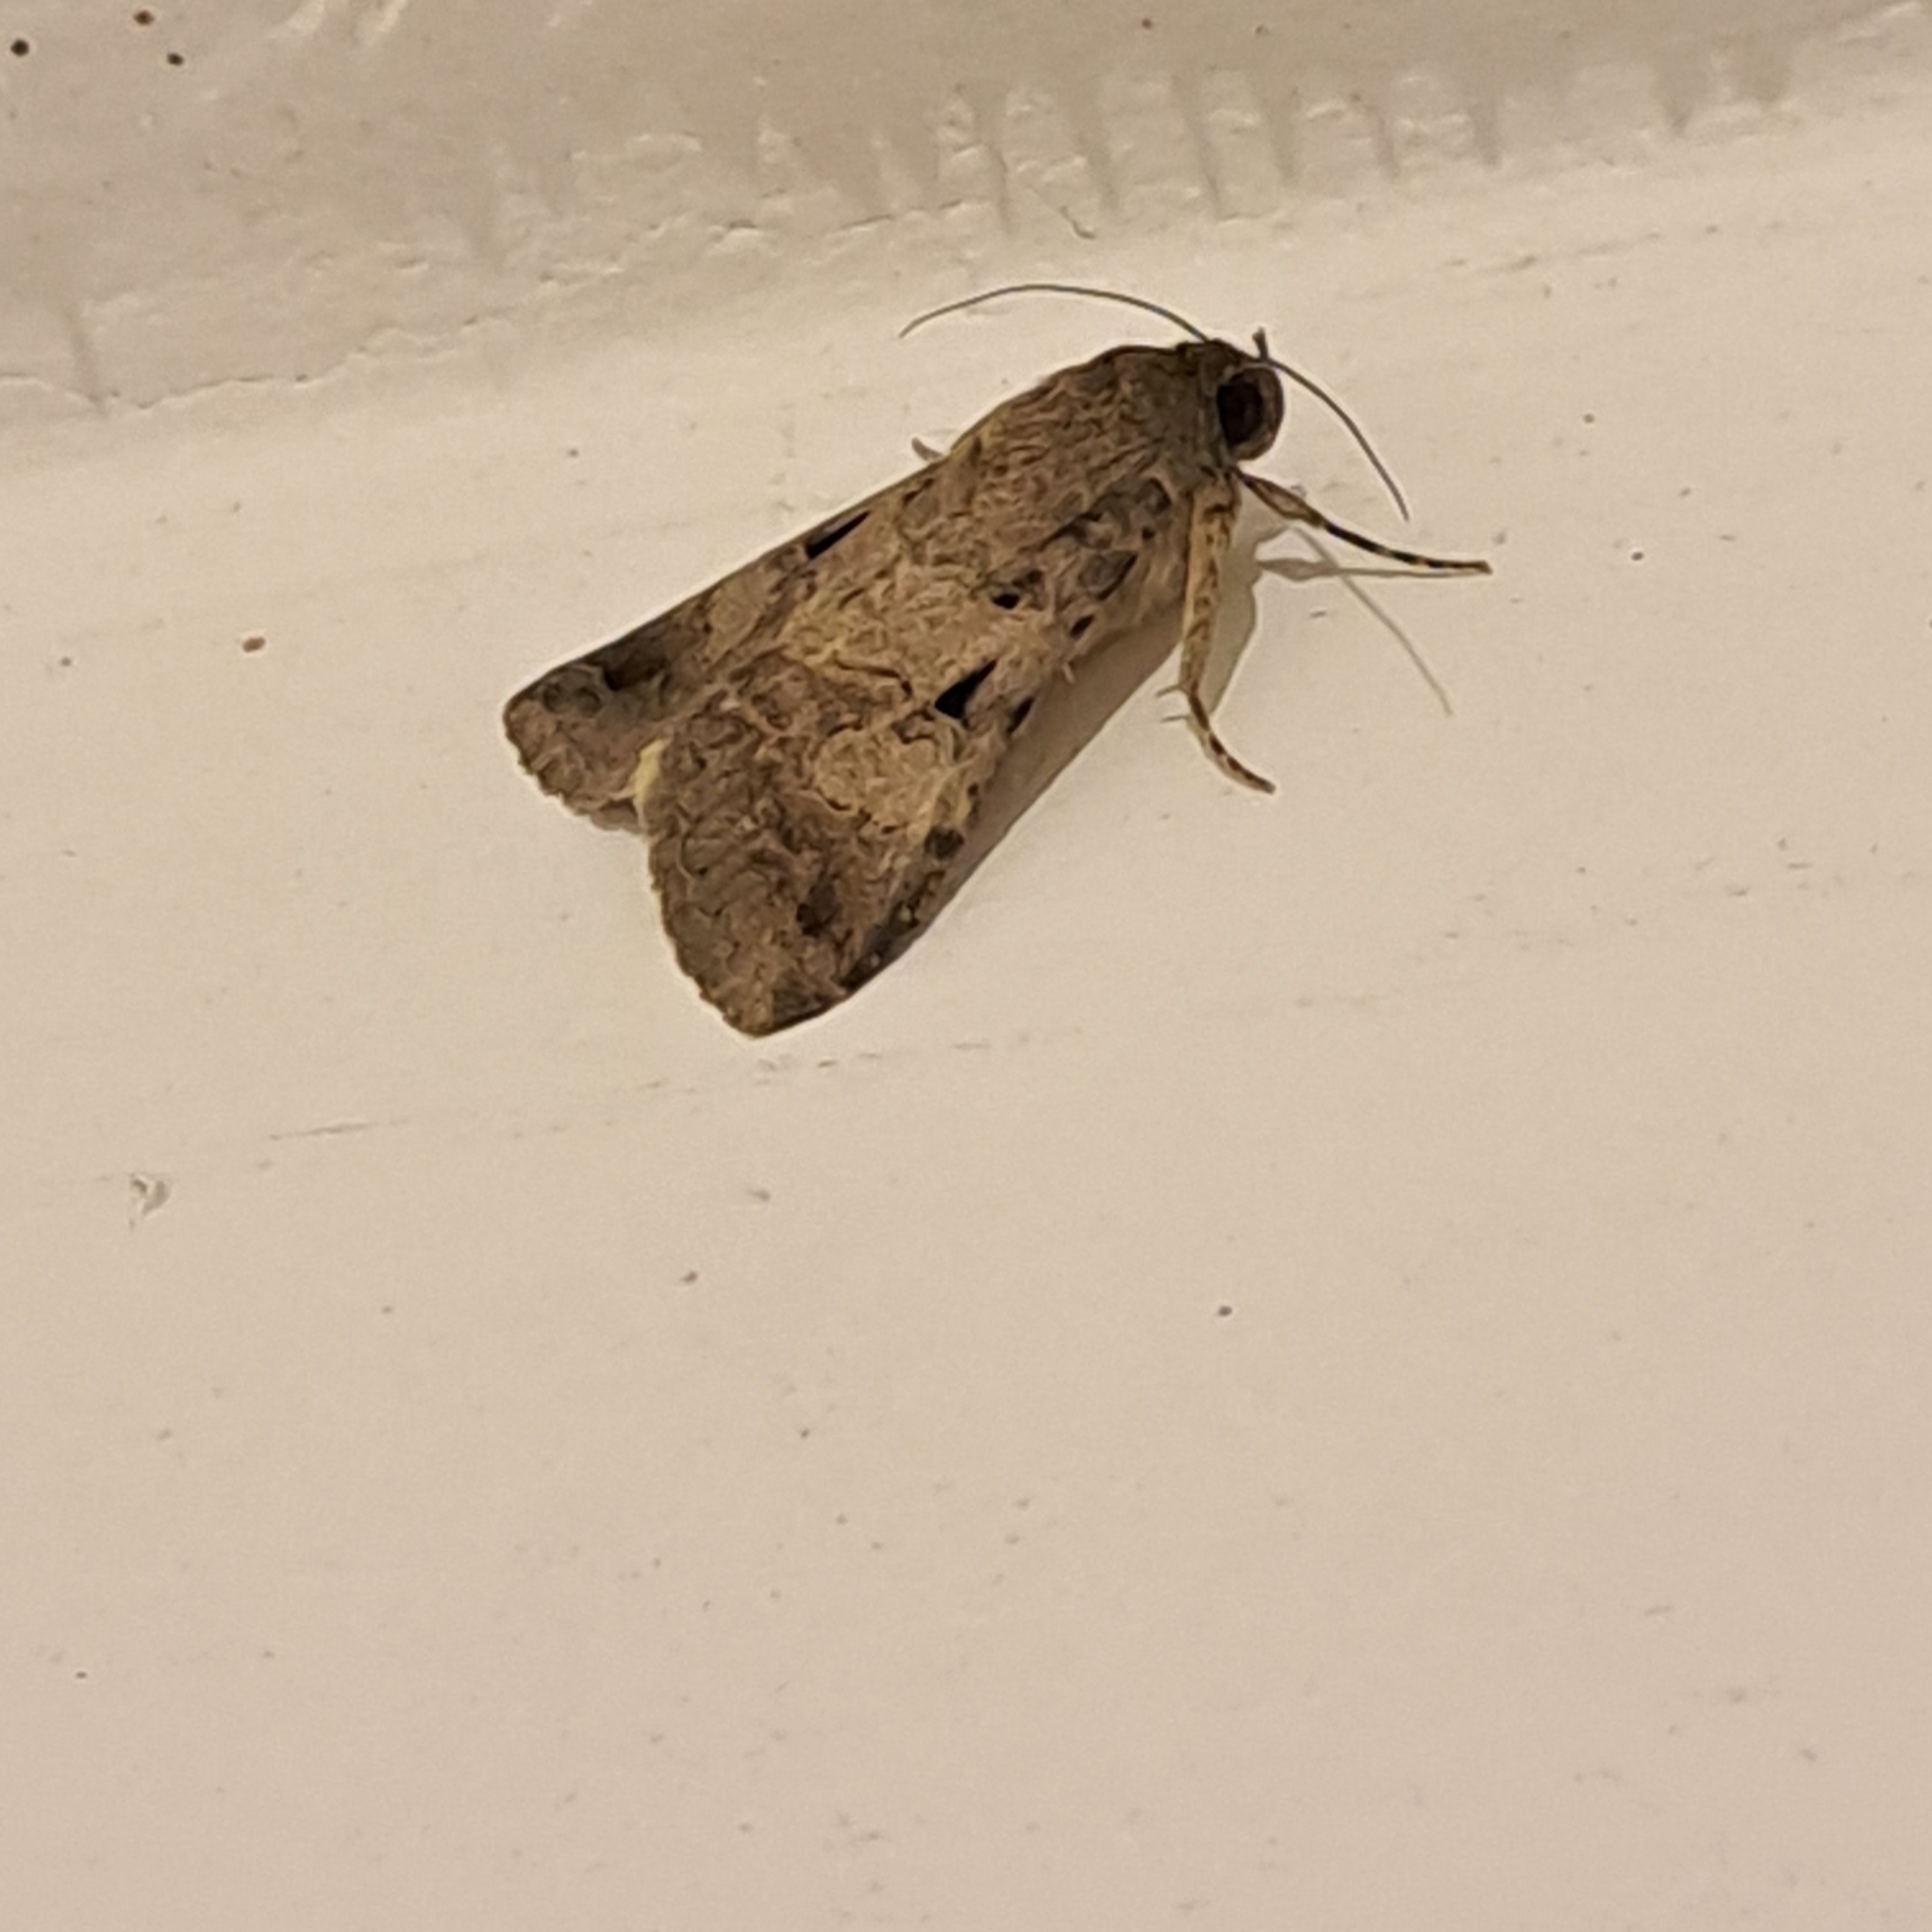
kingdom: Animalia
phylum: Arthropoda
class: Insecta
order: Lepidoptera
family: Erebidae
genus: Melipotis
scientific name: Melipotis walkeri
